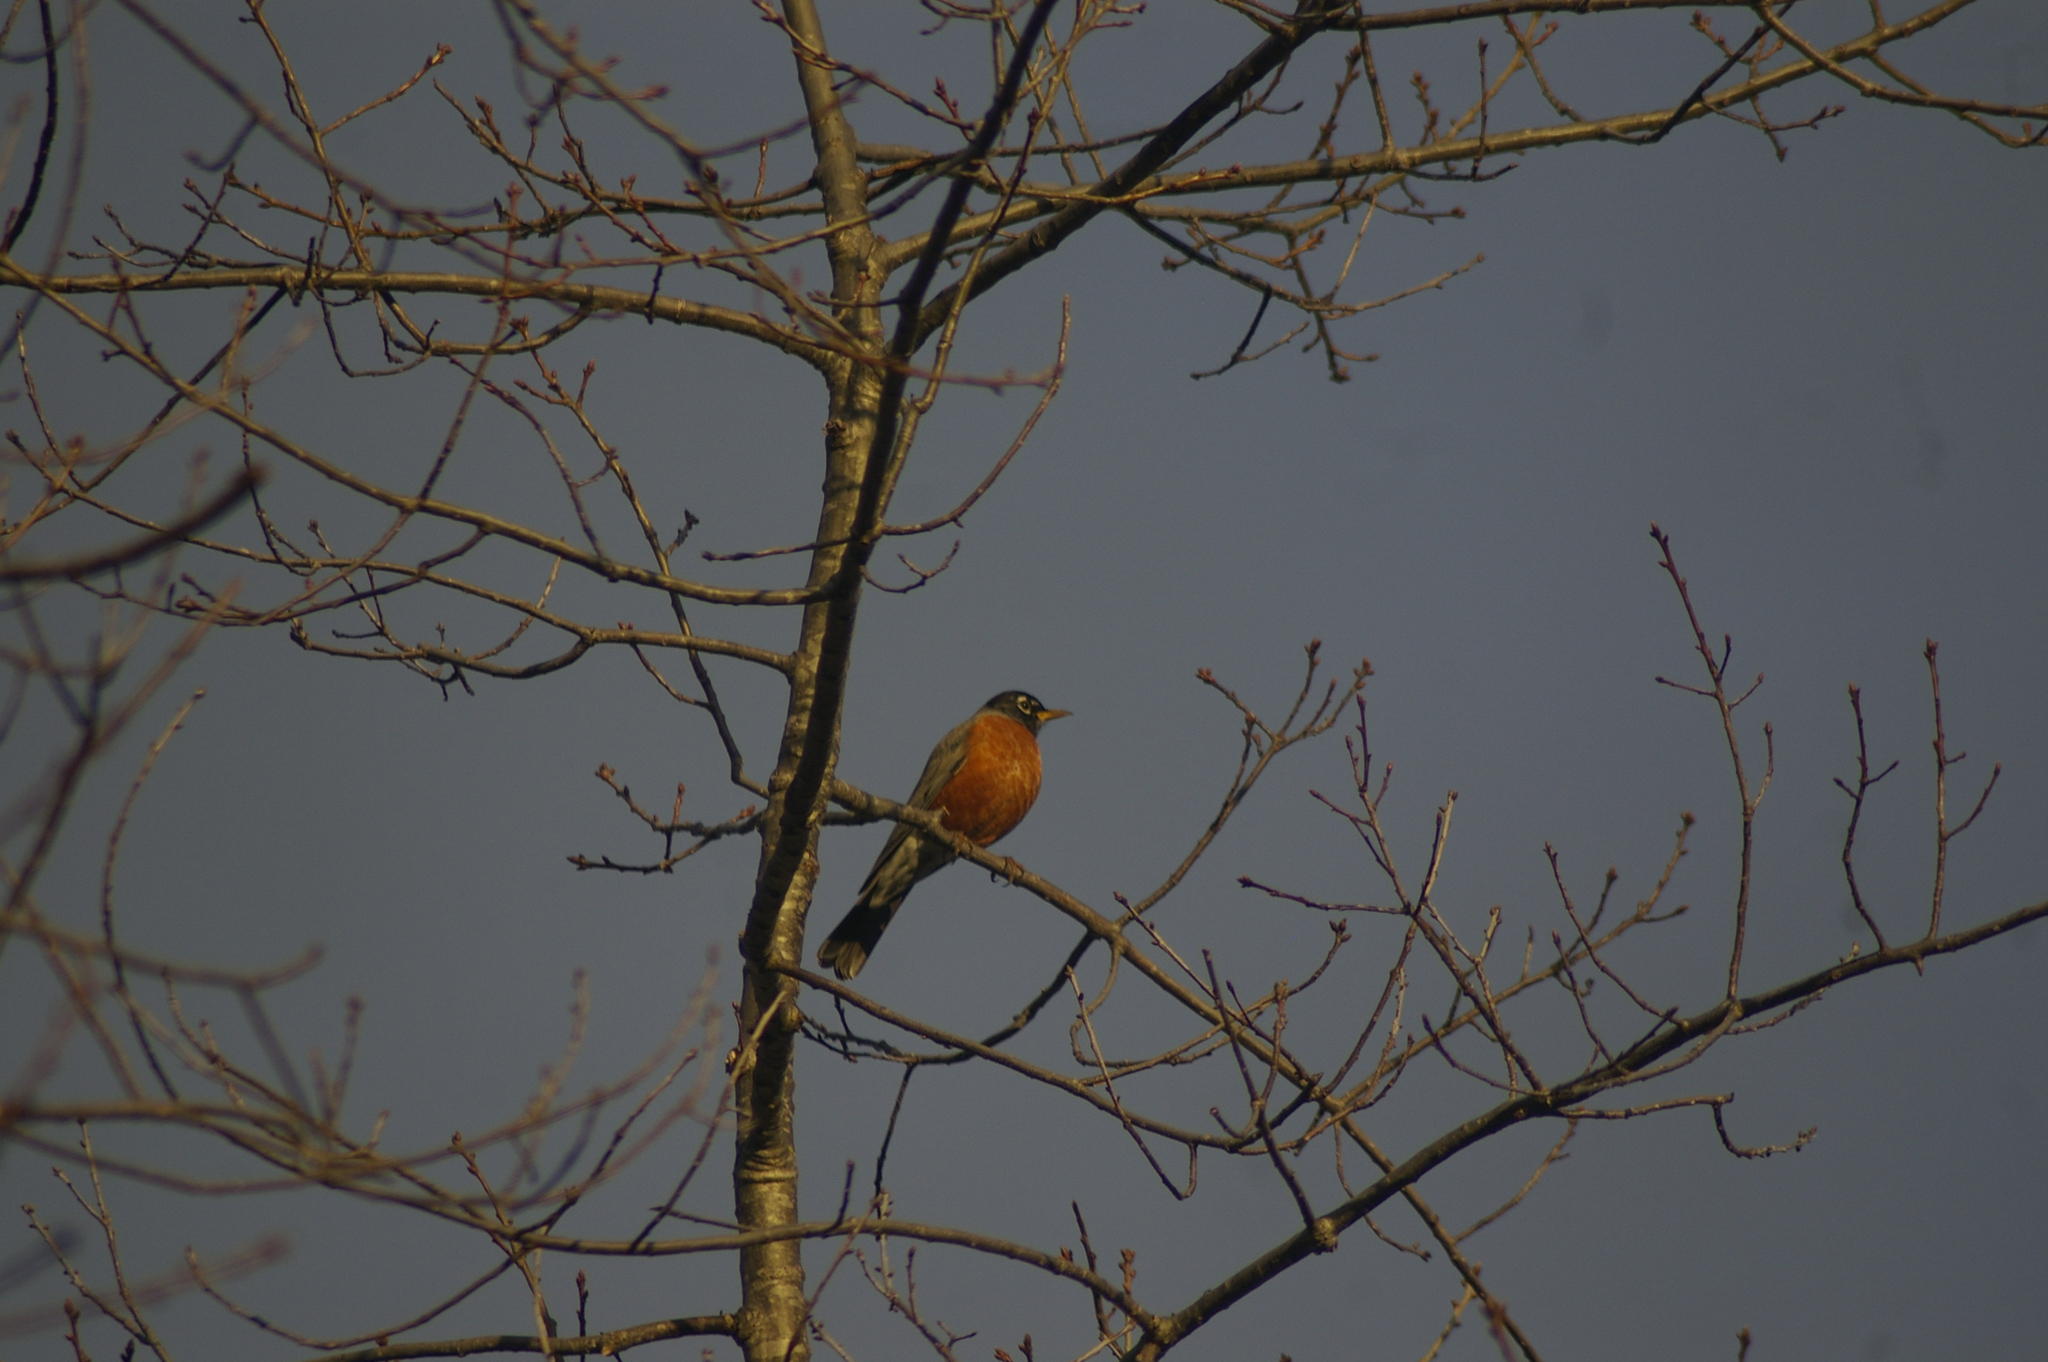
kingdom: Animalia
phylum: Chordata
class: Aves
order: Passeriformes
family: Turdidae
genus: Turdus
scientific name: Turdus migratorius
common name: American robin
